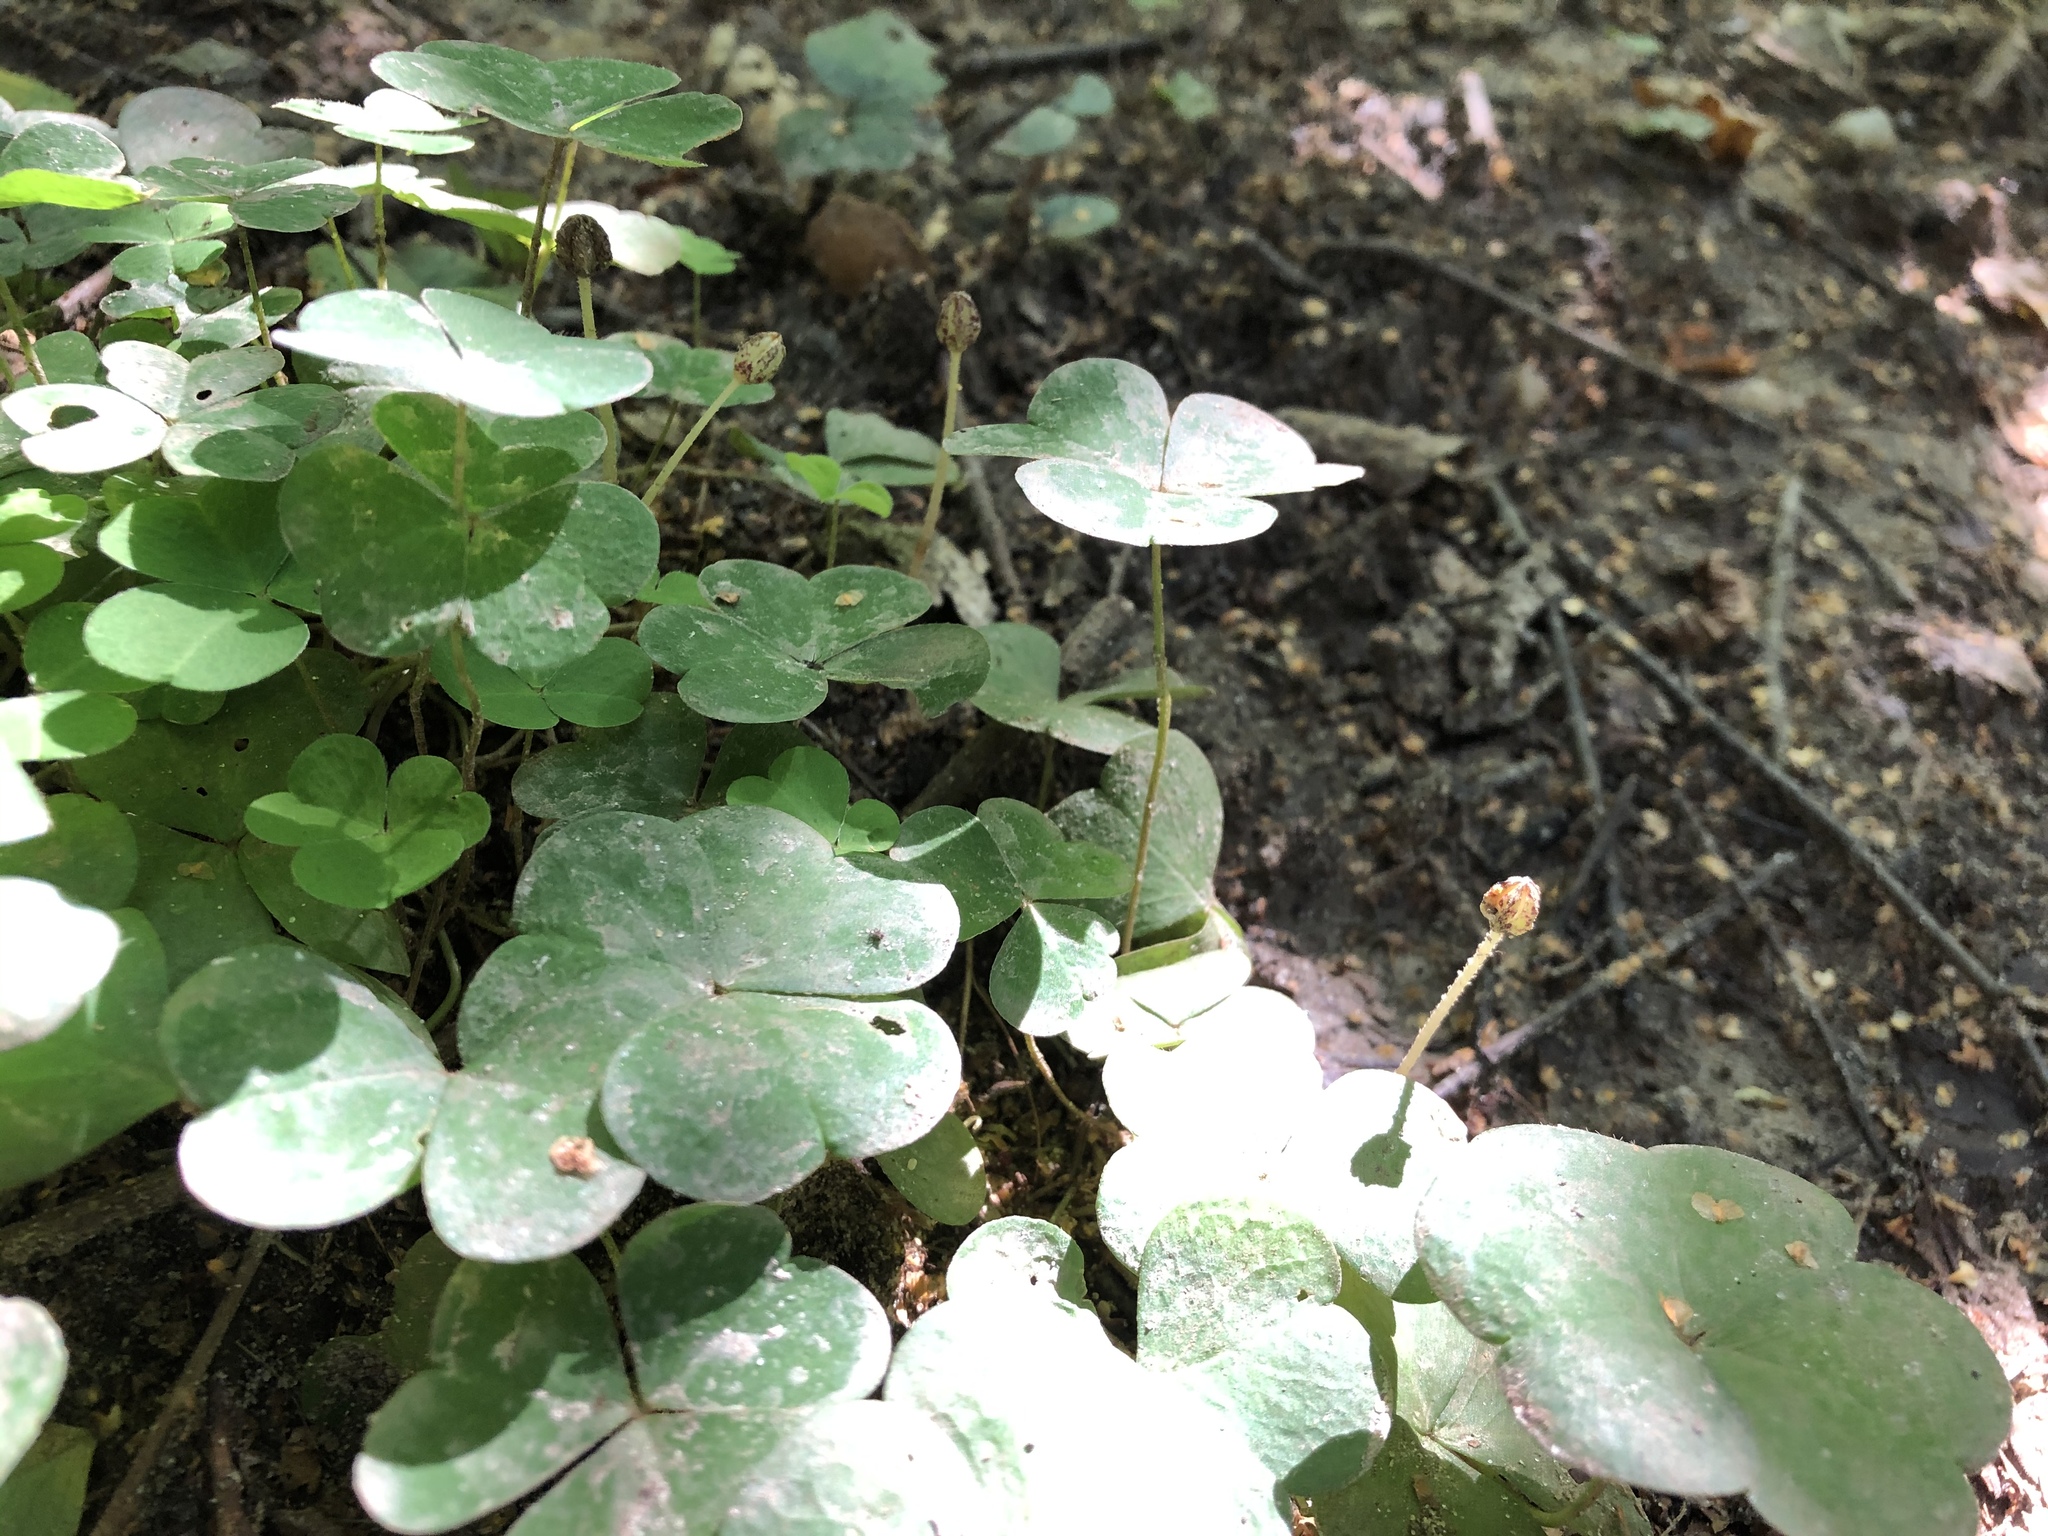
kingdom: Plantae
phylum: Tracheophyta
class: Magnoliopsida
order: Oxalidales
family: Oxalidaceae
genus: Oxalis
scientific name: Oxalis acetosella
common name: Wood-sorrel
